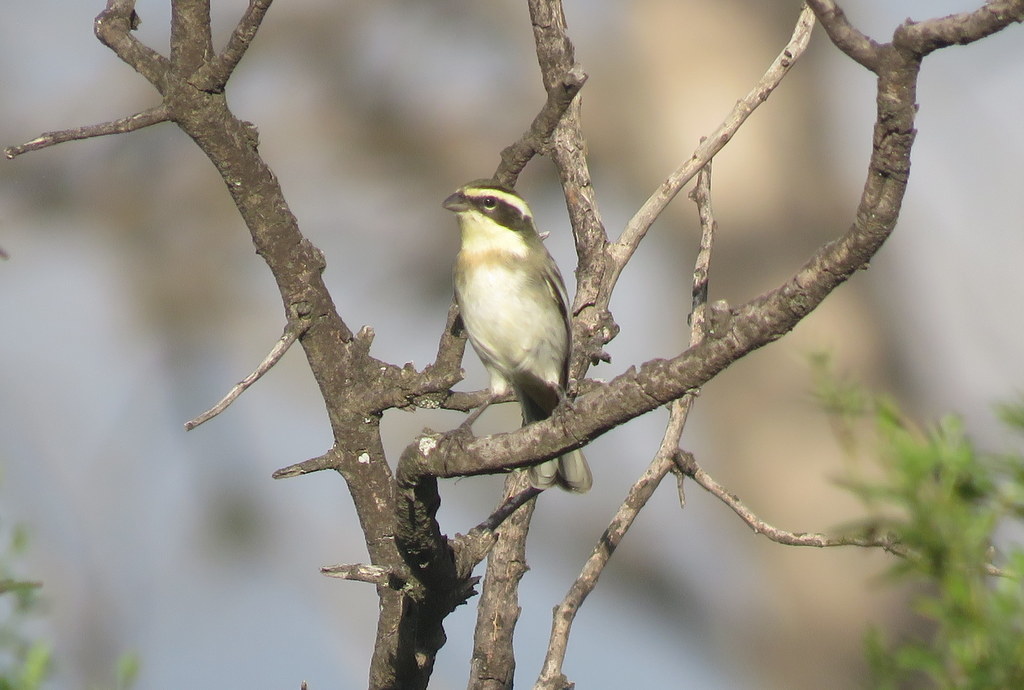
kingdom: Animalia
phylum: Chordata
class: Aves
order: Passeriformes
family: Thraupidae
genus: Microspingus
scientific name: Microspingus torquatus
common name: Ringed warbling-finch
